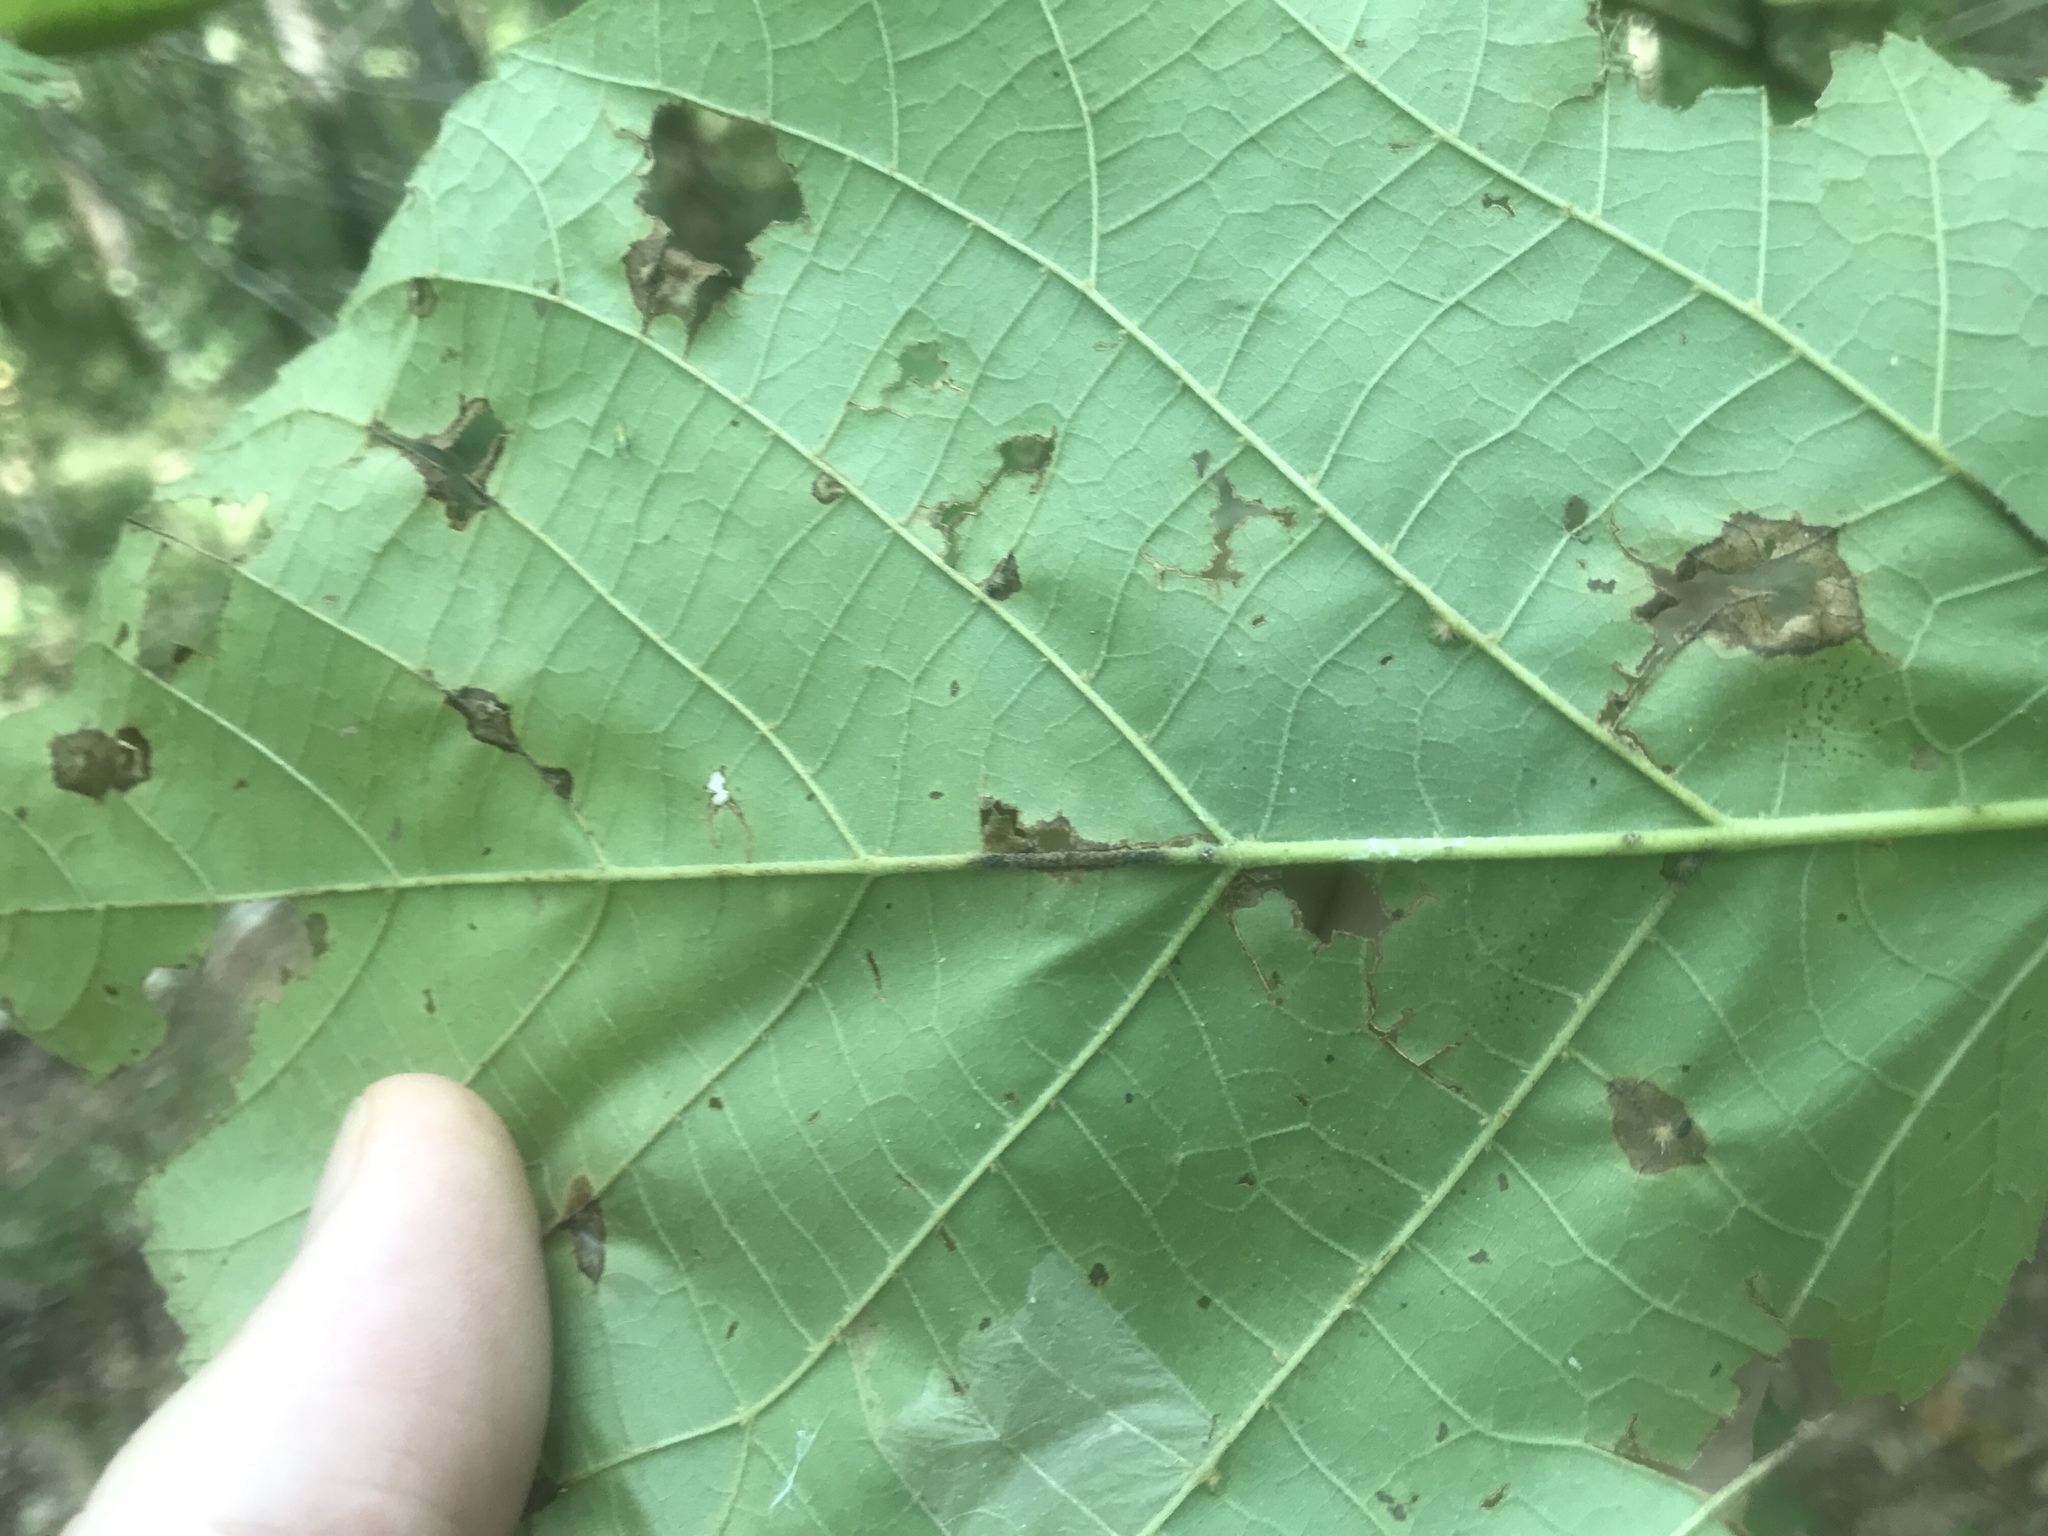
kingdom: Plantae
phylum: Tracheophyta
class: Magnoliopsida
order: Malvales
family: Malvaceae
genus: Tilia
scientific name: Tilia americana
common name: Basswood
